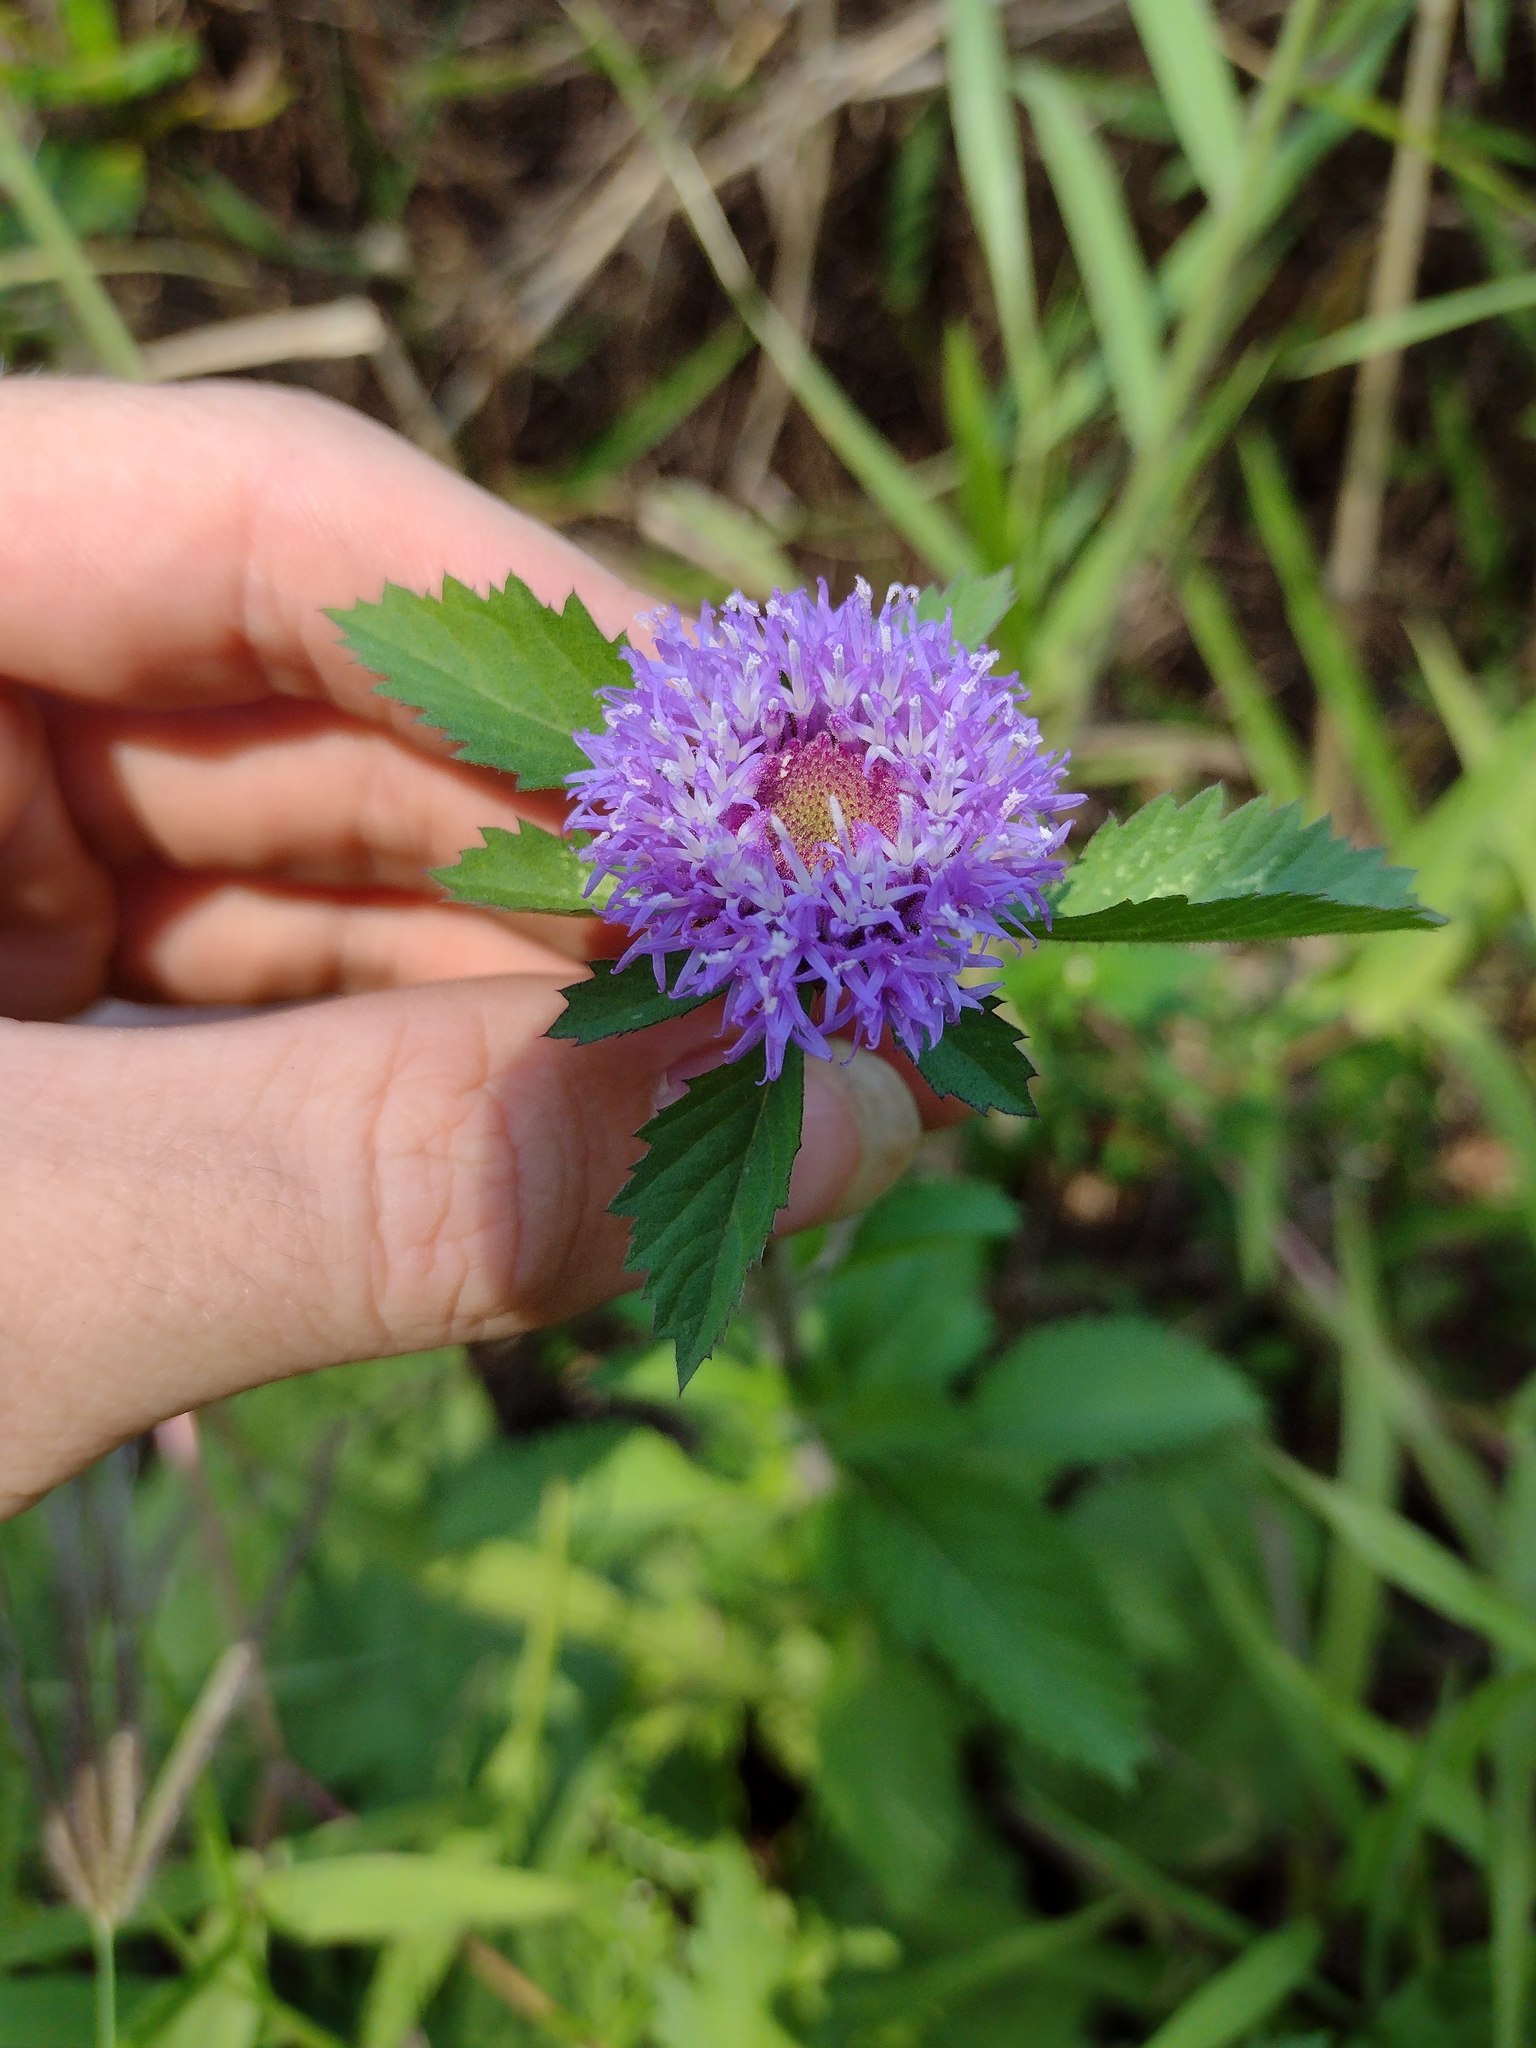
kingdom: Plantae
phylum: Tracheophyta
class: Magnoliopsida
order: Asterales
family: Asteraceae
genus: Centratherum
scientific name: Centratherum punctatum
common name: Larkdaisy
